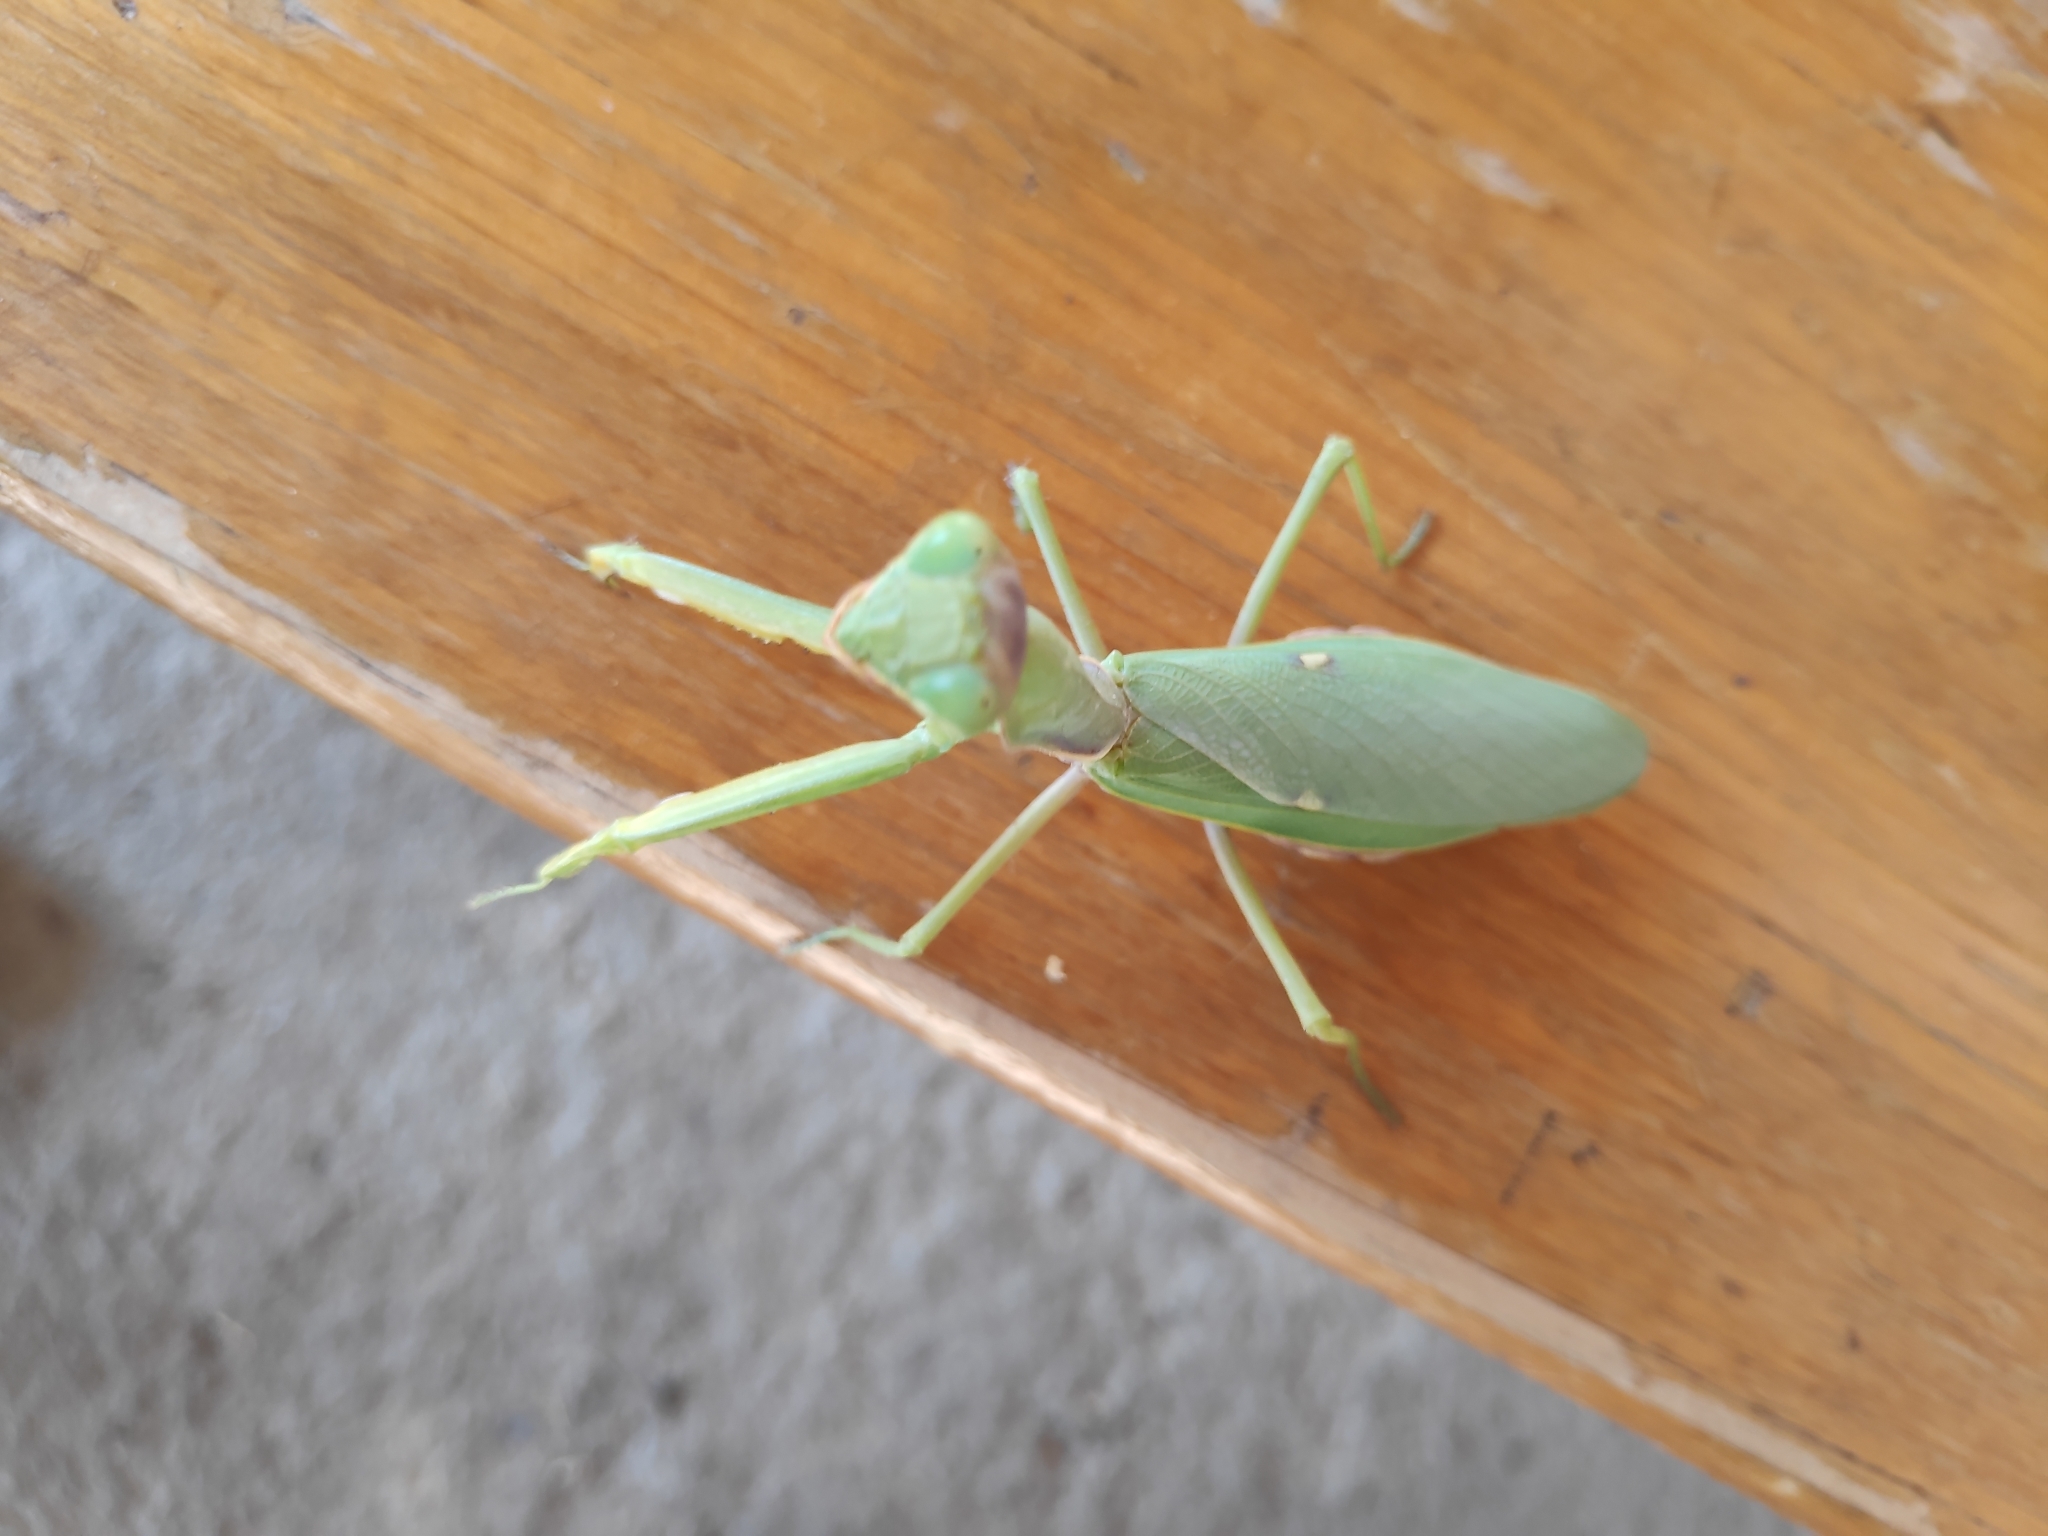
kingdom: Animalia
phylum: Arthropoda
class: Insecta
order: Mantodea
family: Mantidae
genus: Hierodula
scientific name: Hierodula transcaucasica
